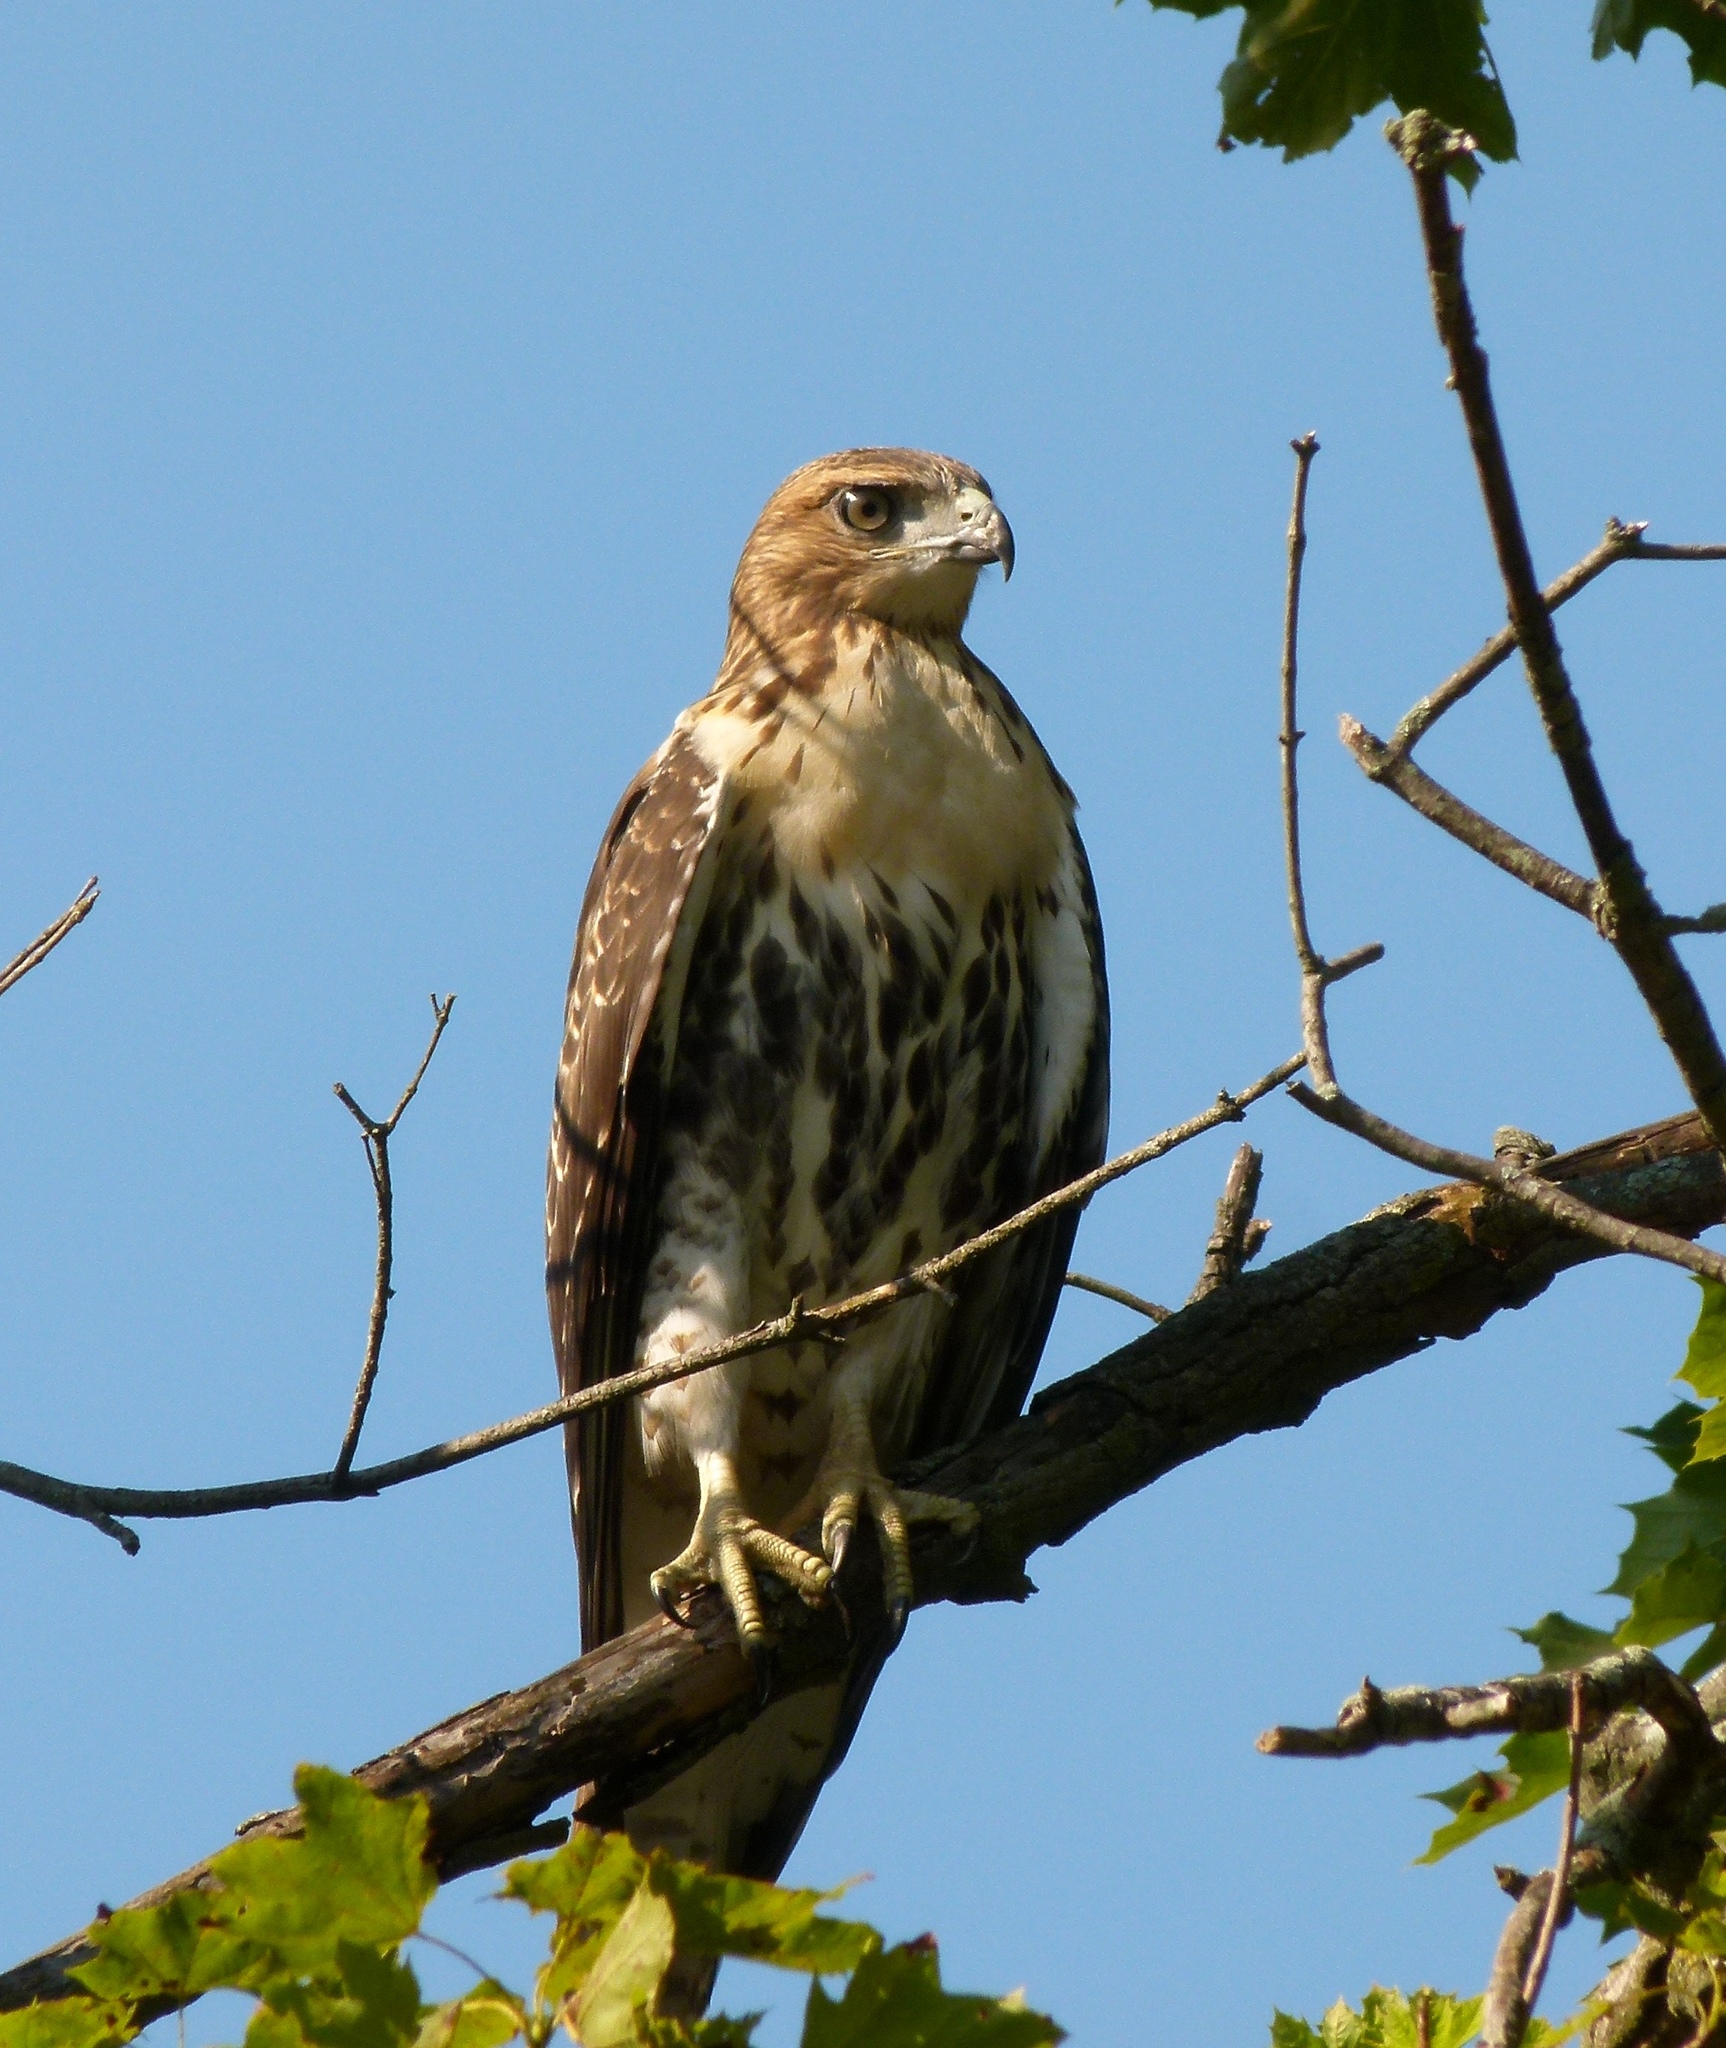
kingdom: Animalia
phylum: Chordata
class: Aves
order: Accipitriformes
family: Accipitridae
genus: Buteo
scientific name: Buteo jamaicensis
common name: Red-tailed hawk
